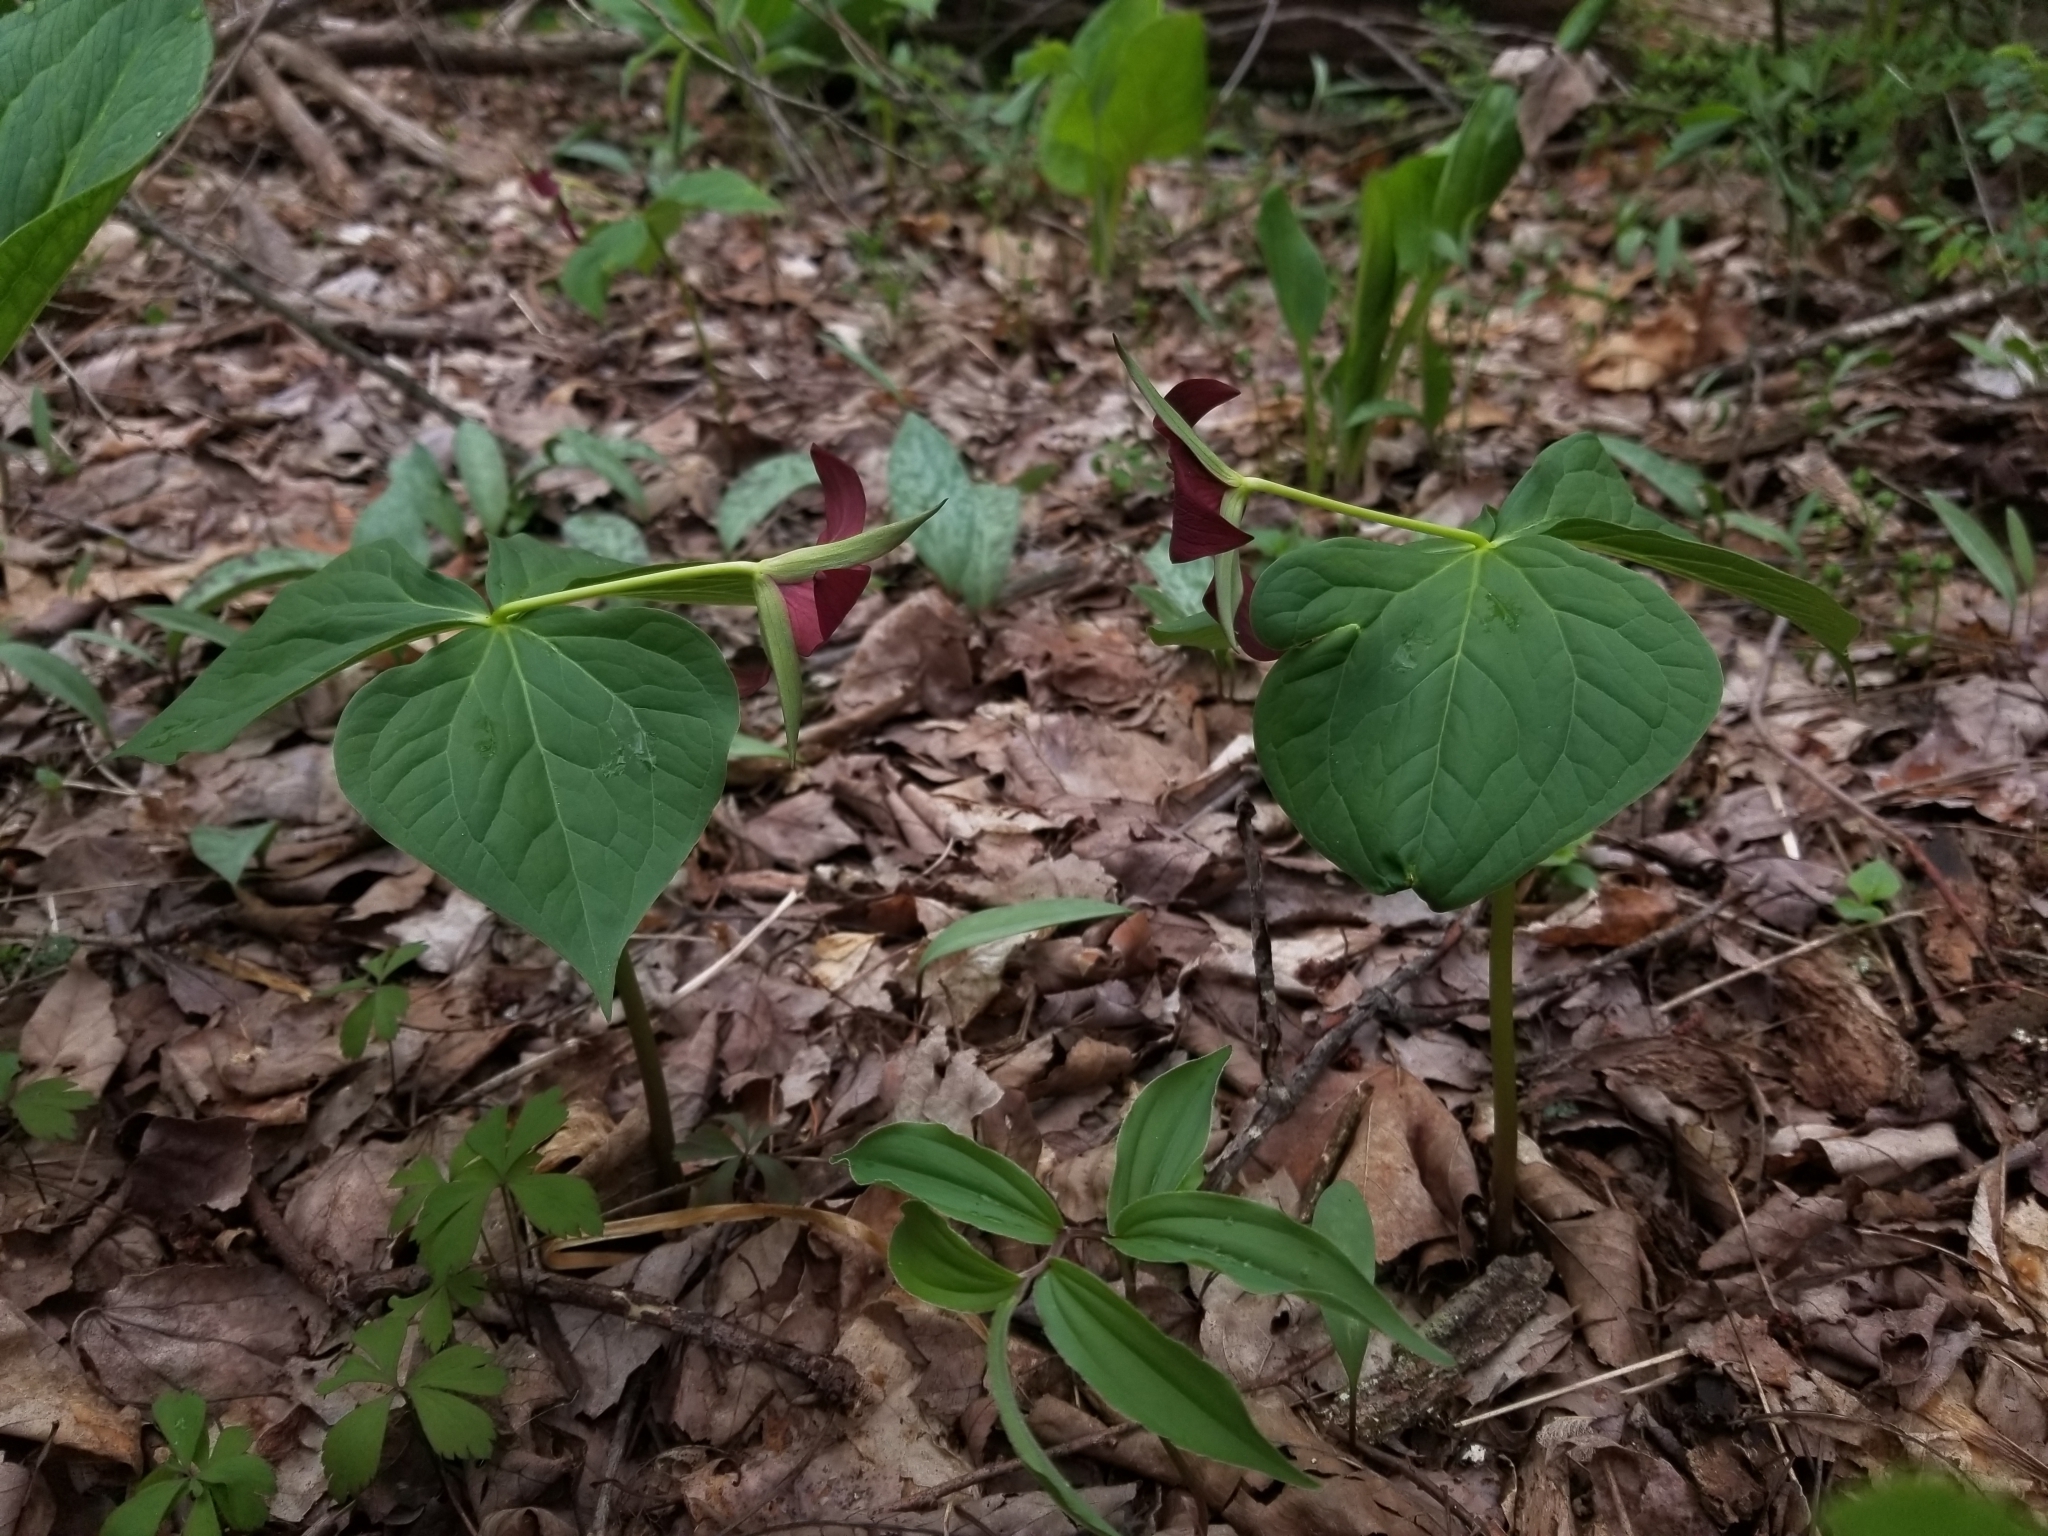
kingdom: Plantae
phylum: Tracheophyta
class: Liliopsida
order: Liliales
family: Melanthiaceae
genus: Trillium
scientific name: Trillium erectum
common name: Purple trillium
